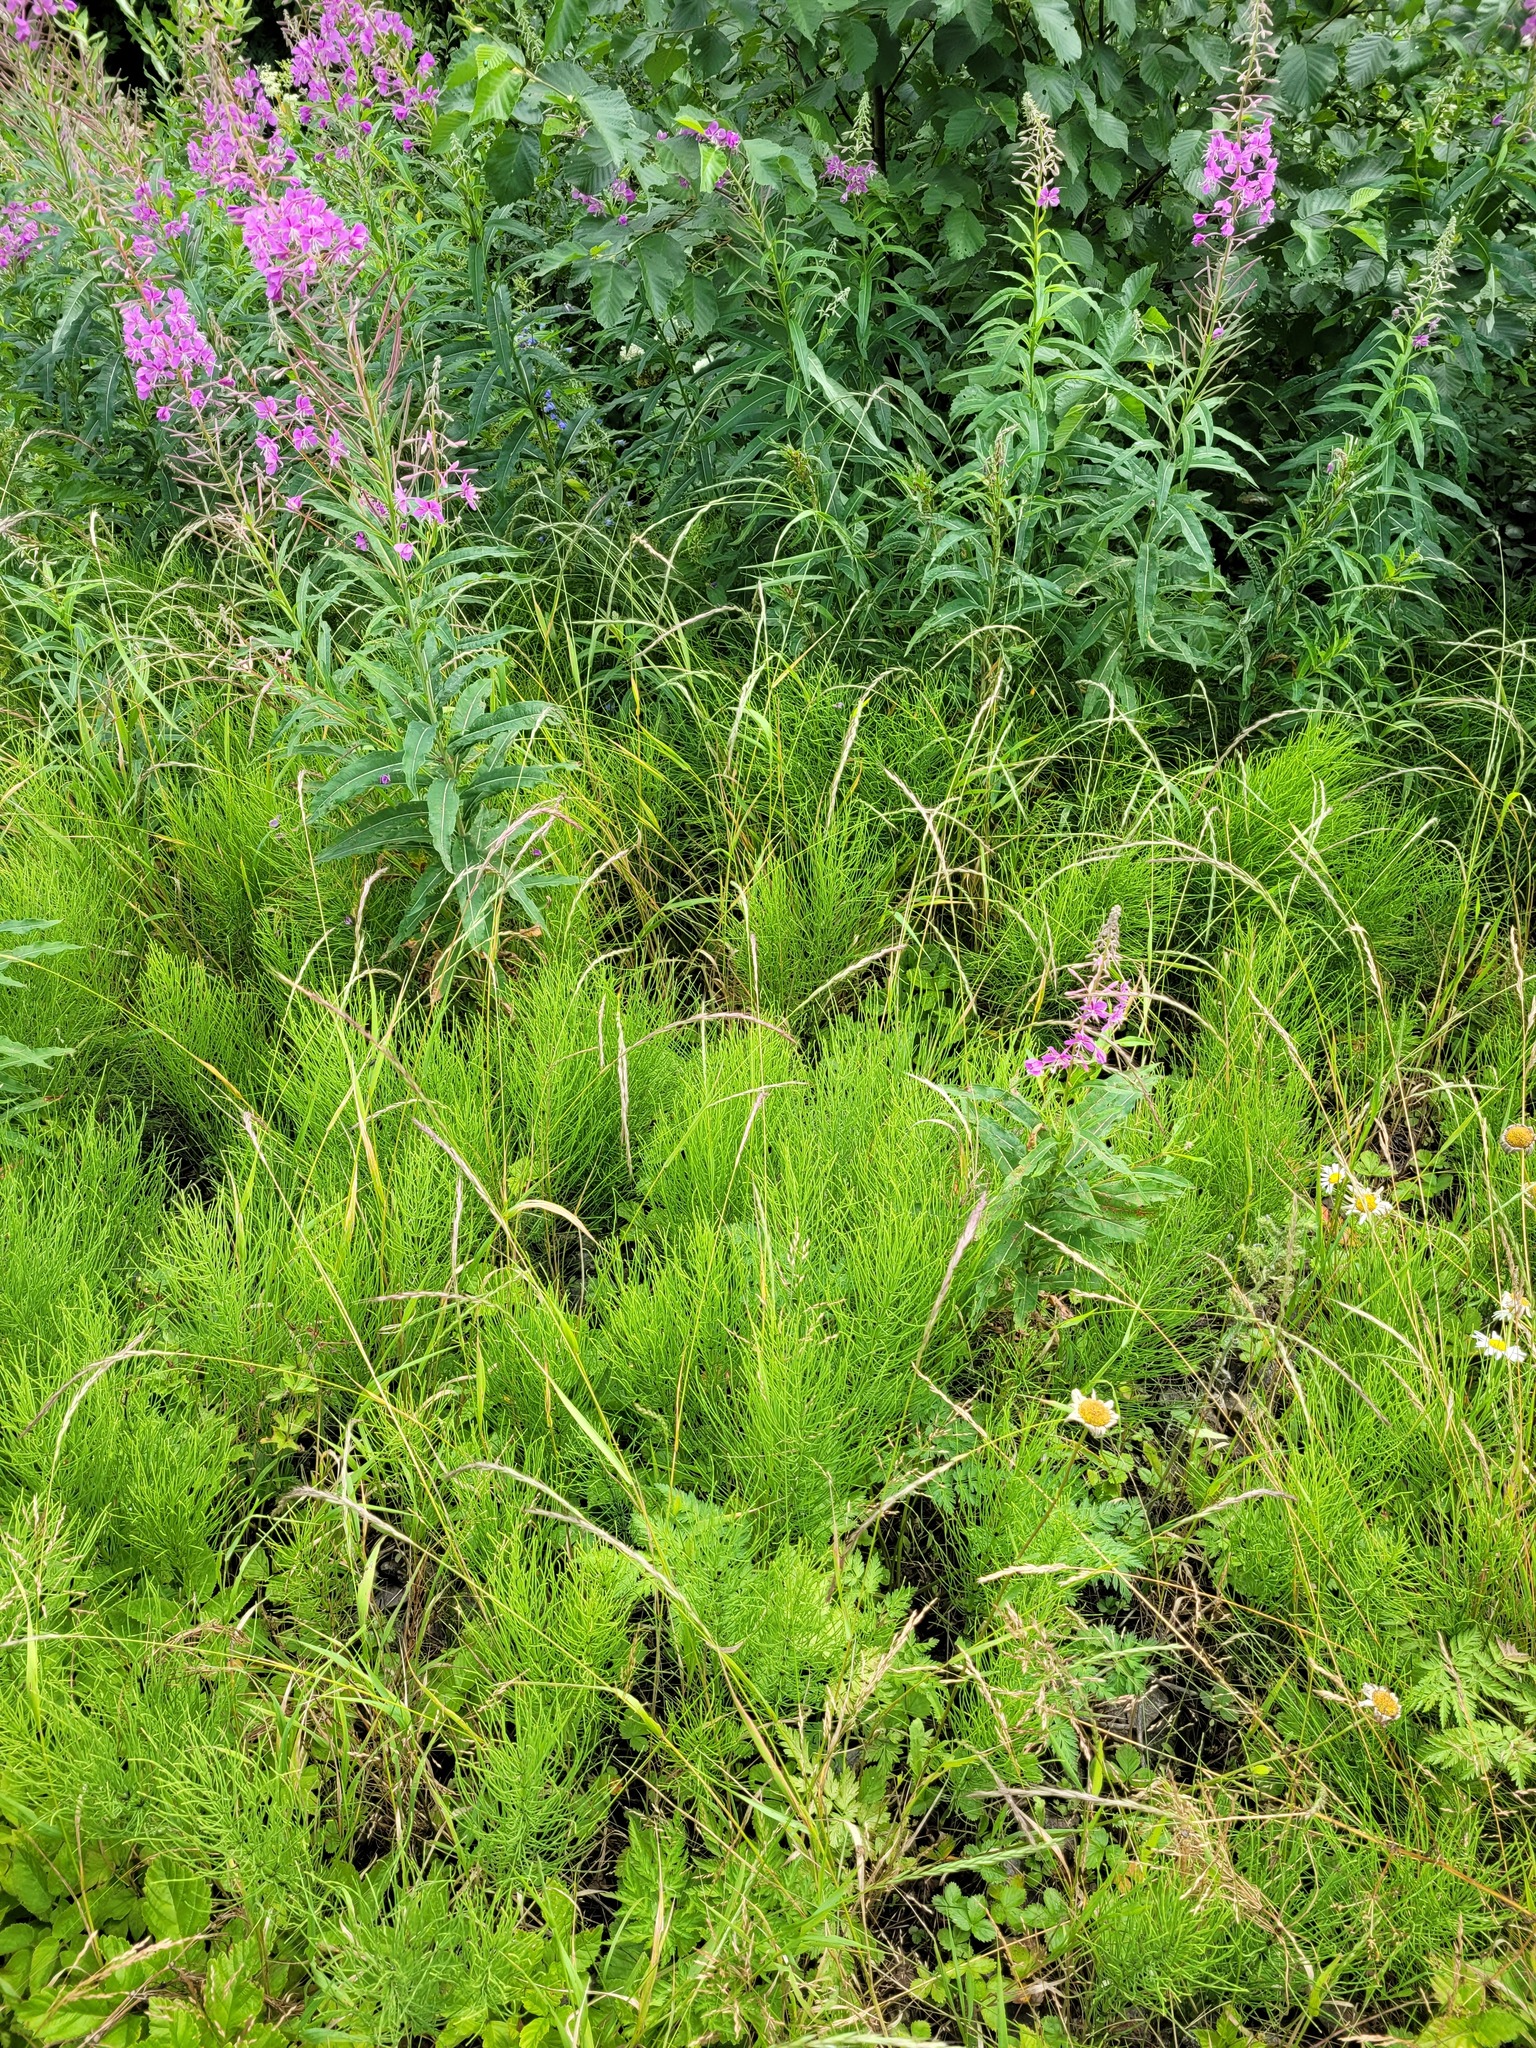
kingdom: Plantae
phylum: Tracheophyta
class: Liliopsida
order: Poales
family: Poaceae
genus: Elymus
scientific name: Elymus caninus
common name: Bearded couch
